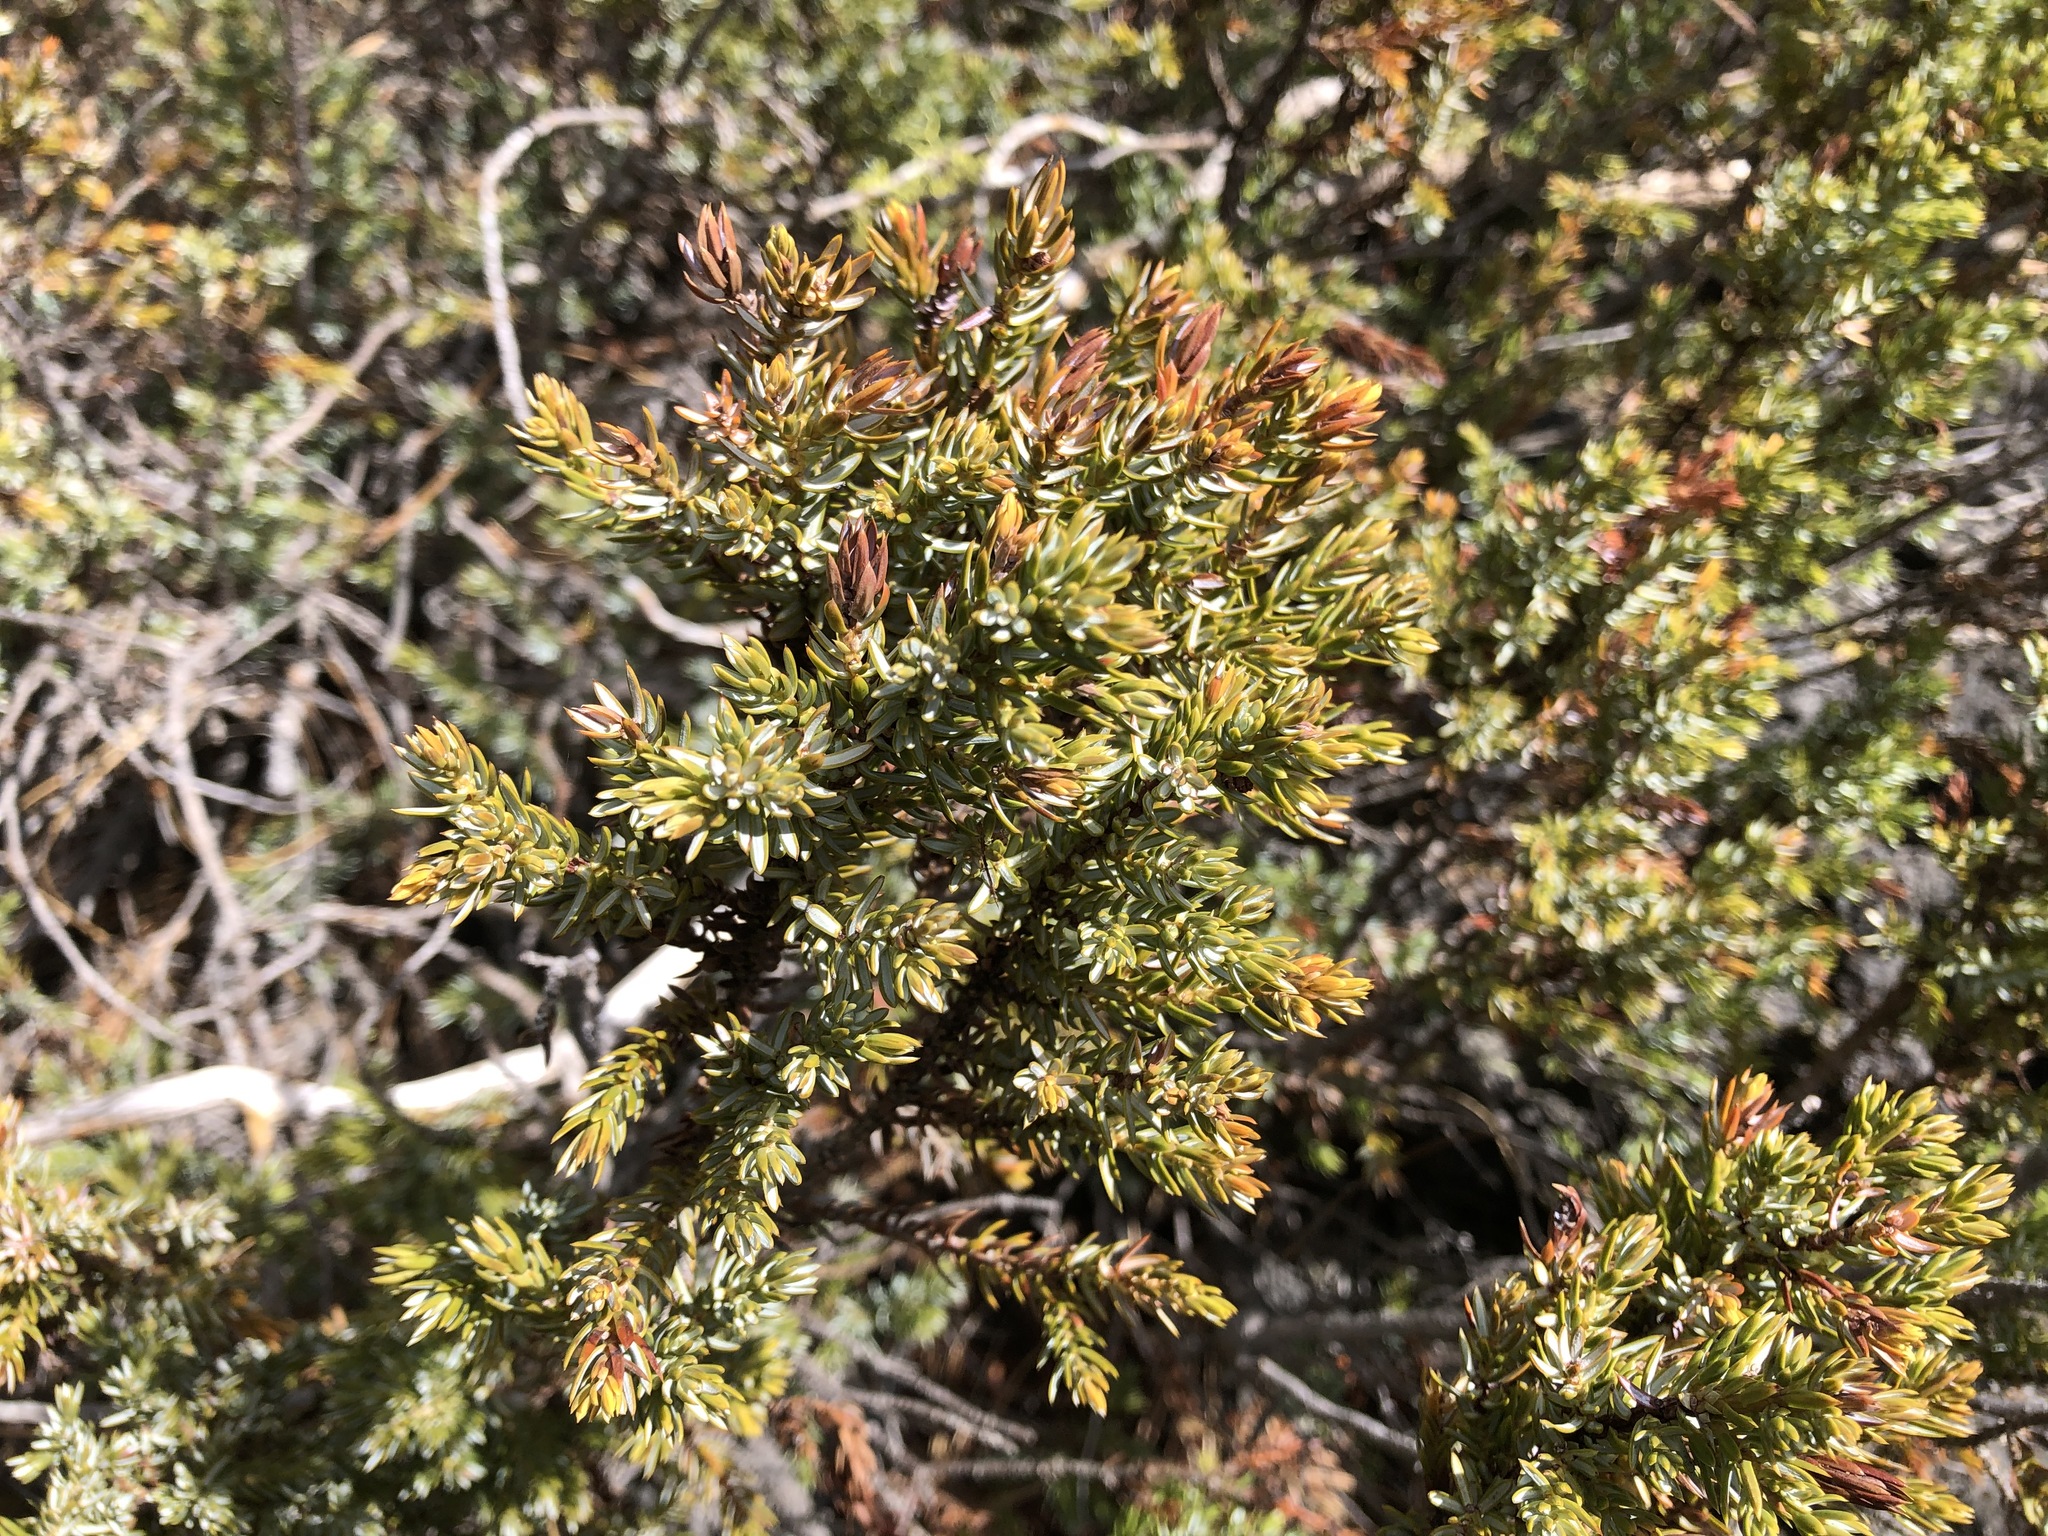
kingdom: Plantae
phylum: Tracheophyta
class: Pinopsida
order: Pinales
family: Cupressaceae
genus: Juniperus
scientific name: Juniperus communis
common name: Common juniper
